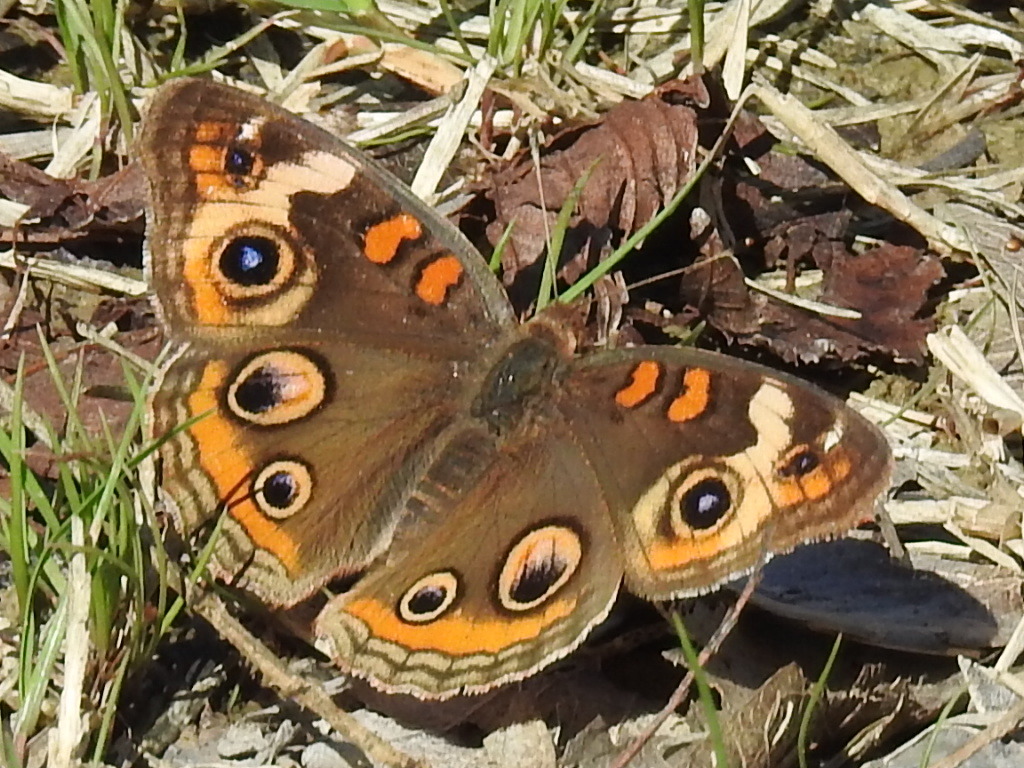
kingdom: Animalia
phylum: Arthropoda
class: Insecta
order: Lepidoptera
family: Nymphalidae
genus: Junonia
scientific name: Junonia coenia
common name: Common buckeye
